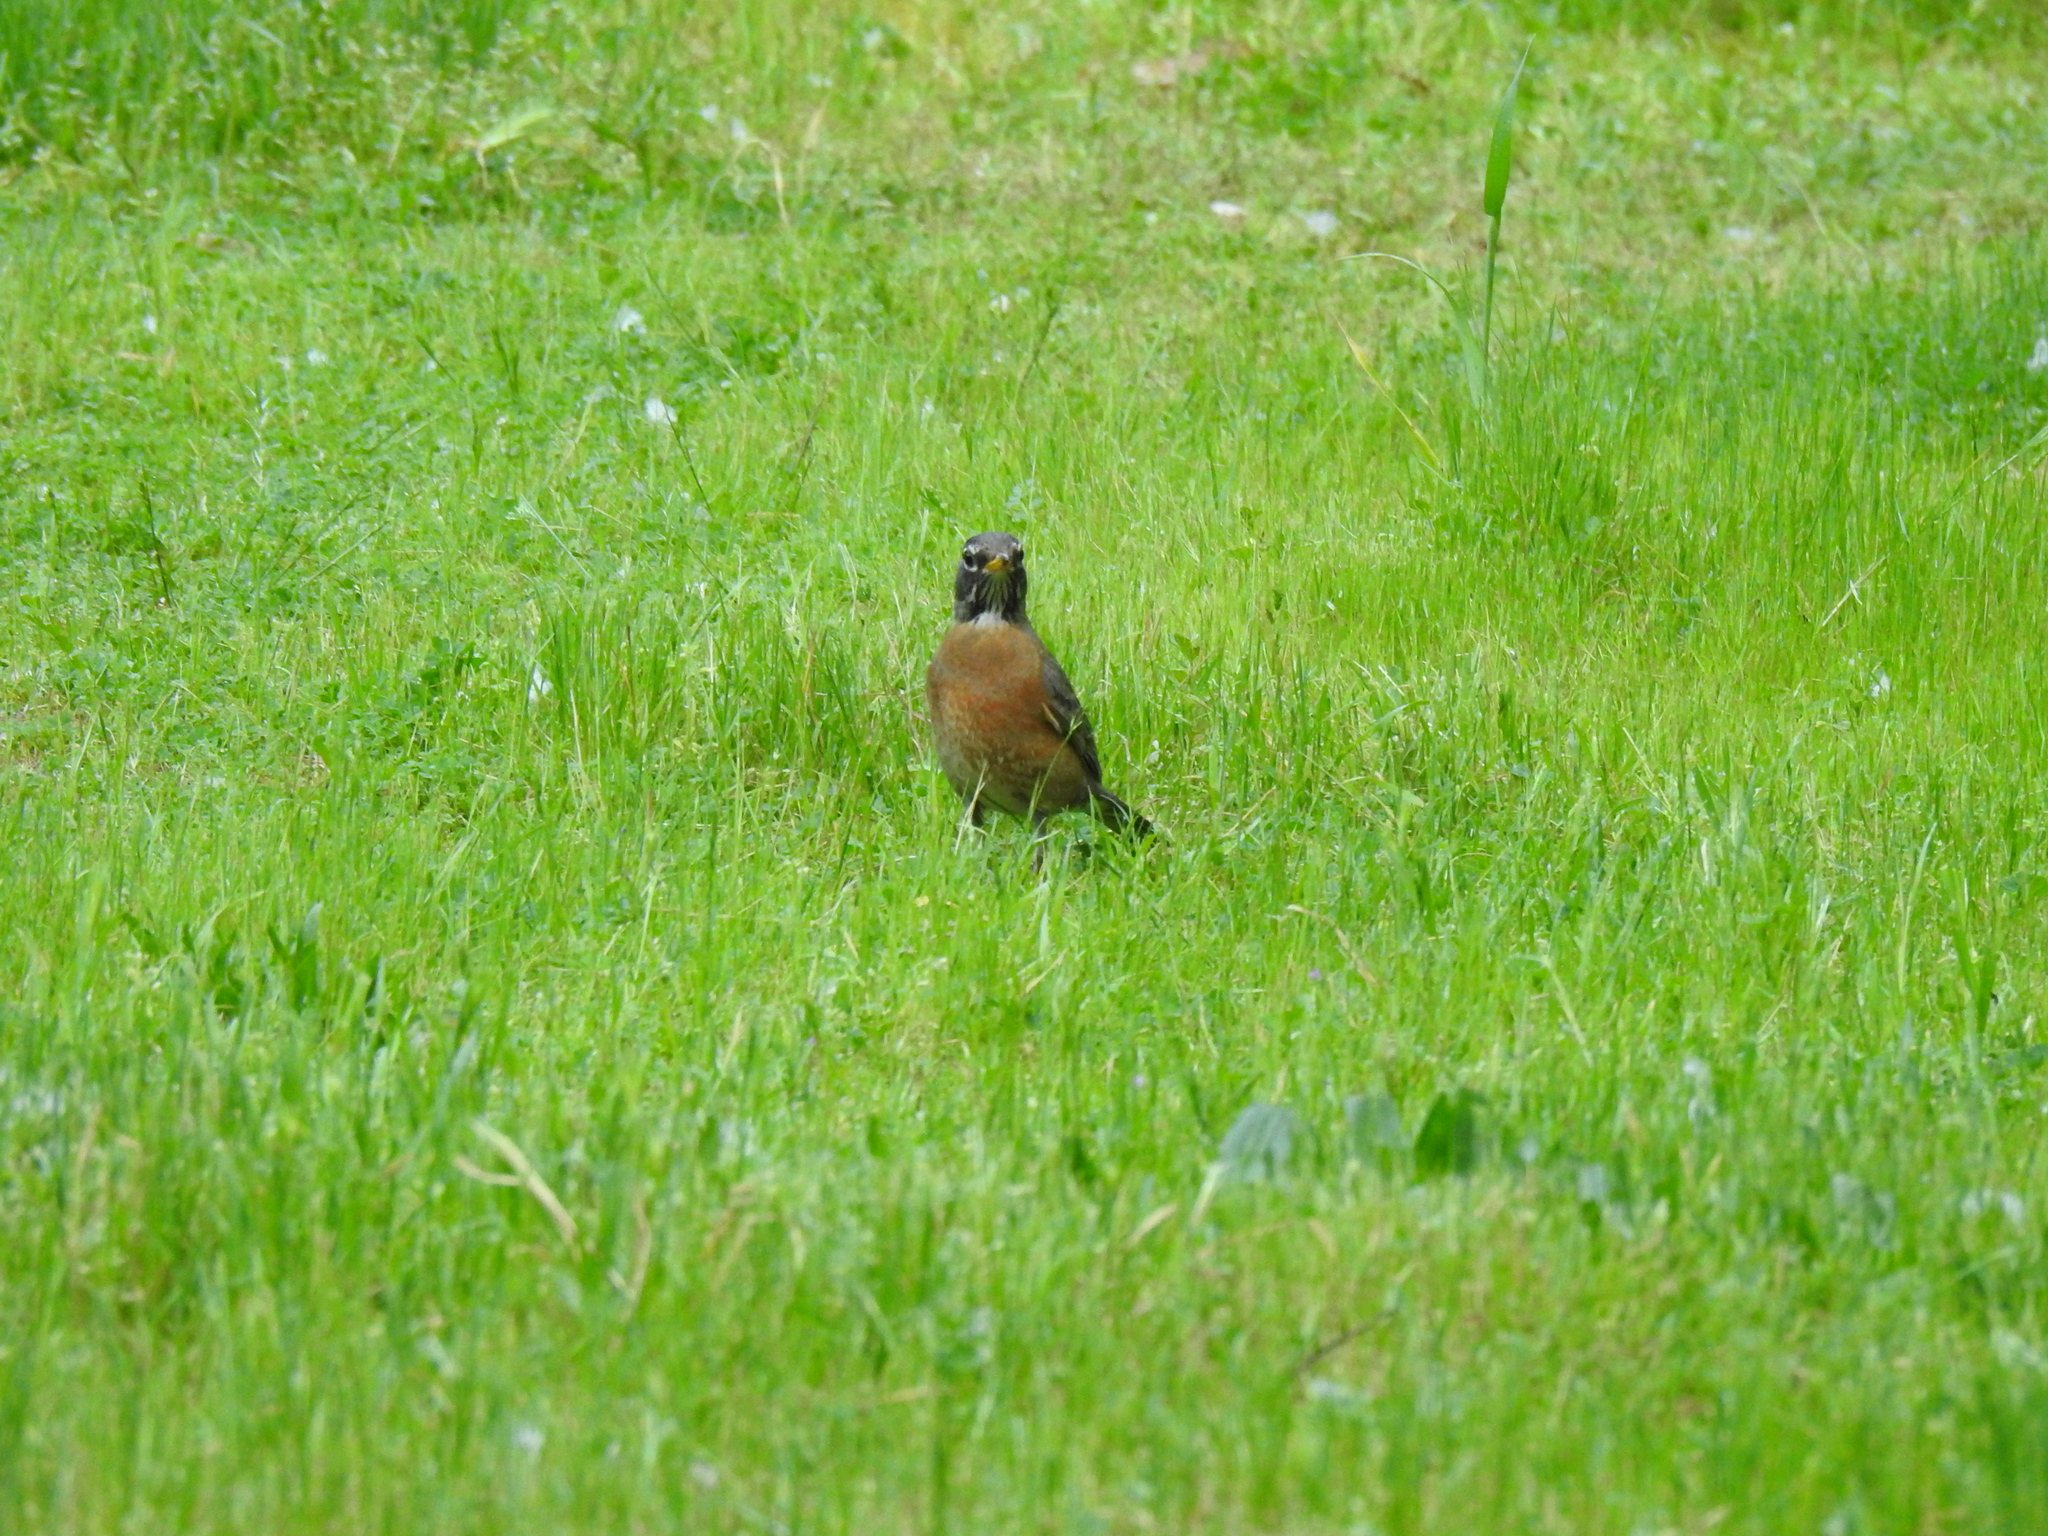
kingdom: Animalia
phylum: Chordata
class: Aves
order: Passeriformes
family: Turdidae
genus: Turdus
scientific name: Turdus migratorius
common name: American robin
